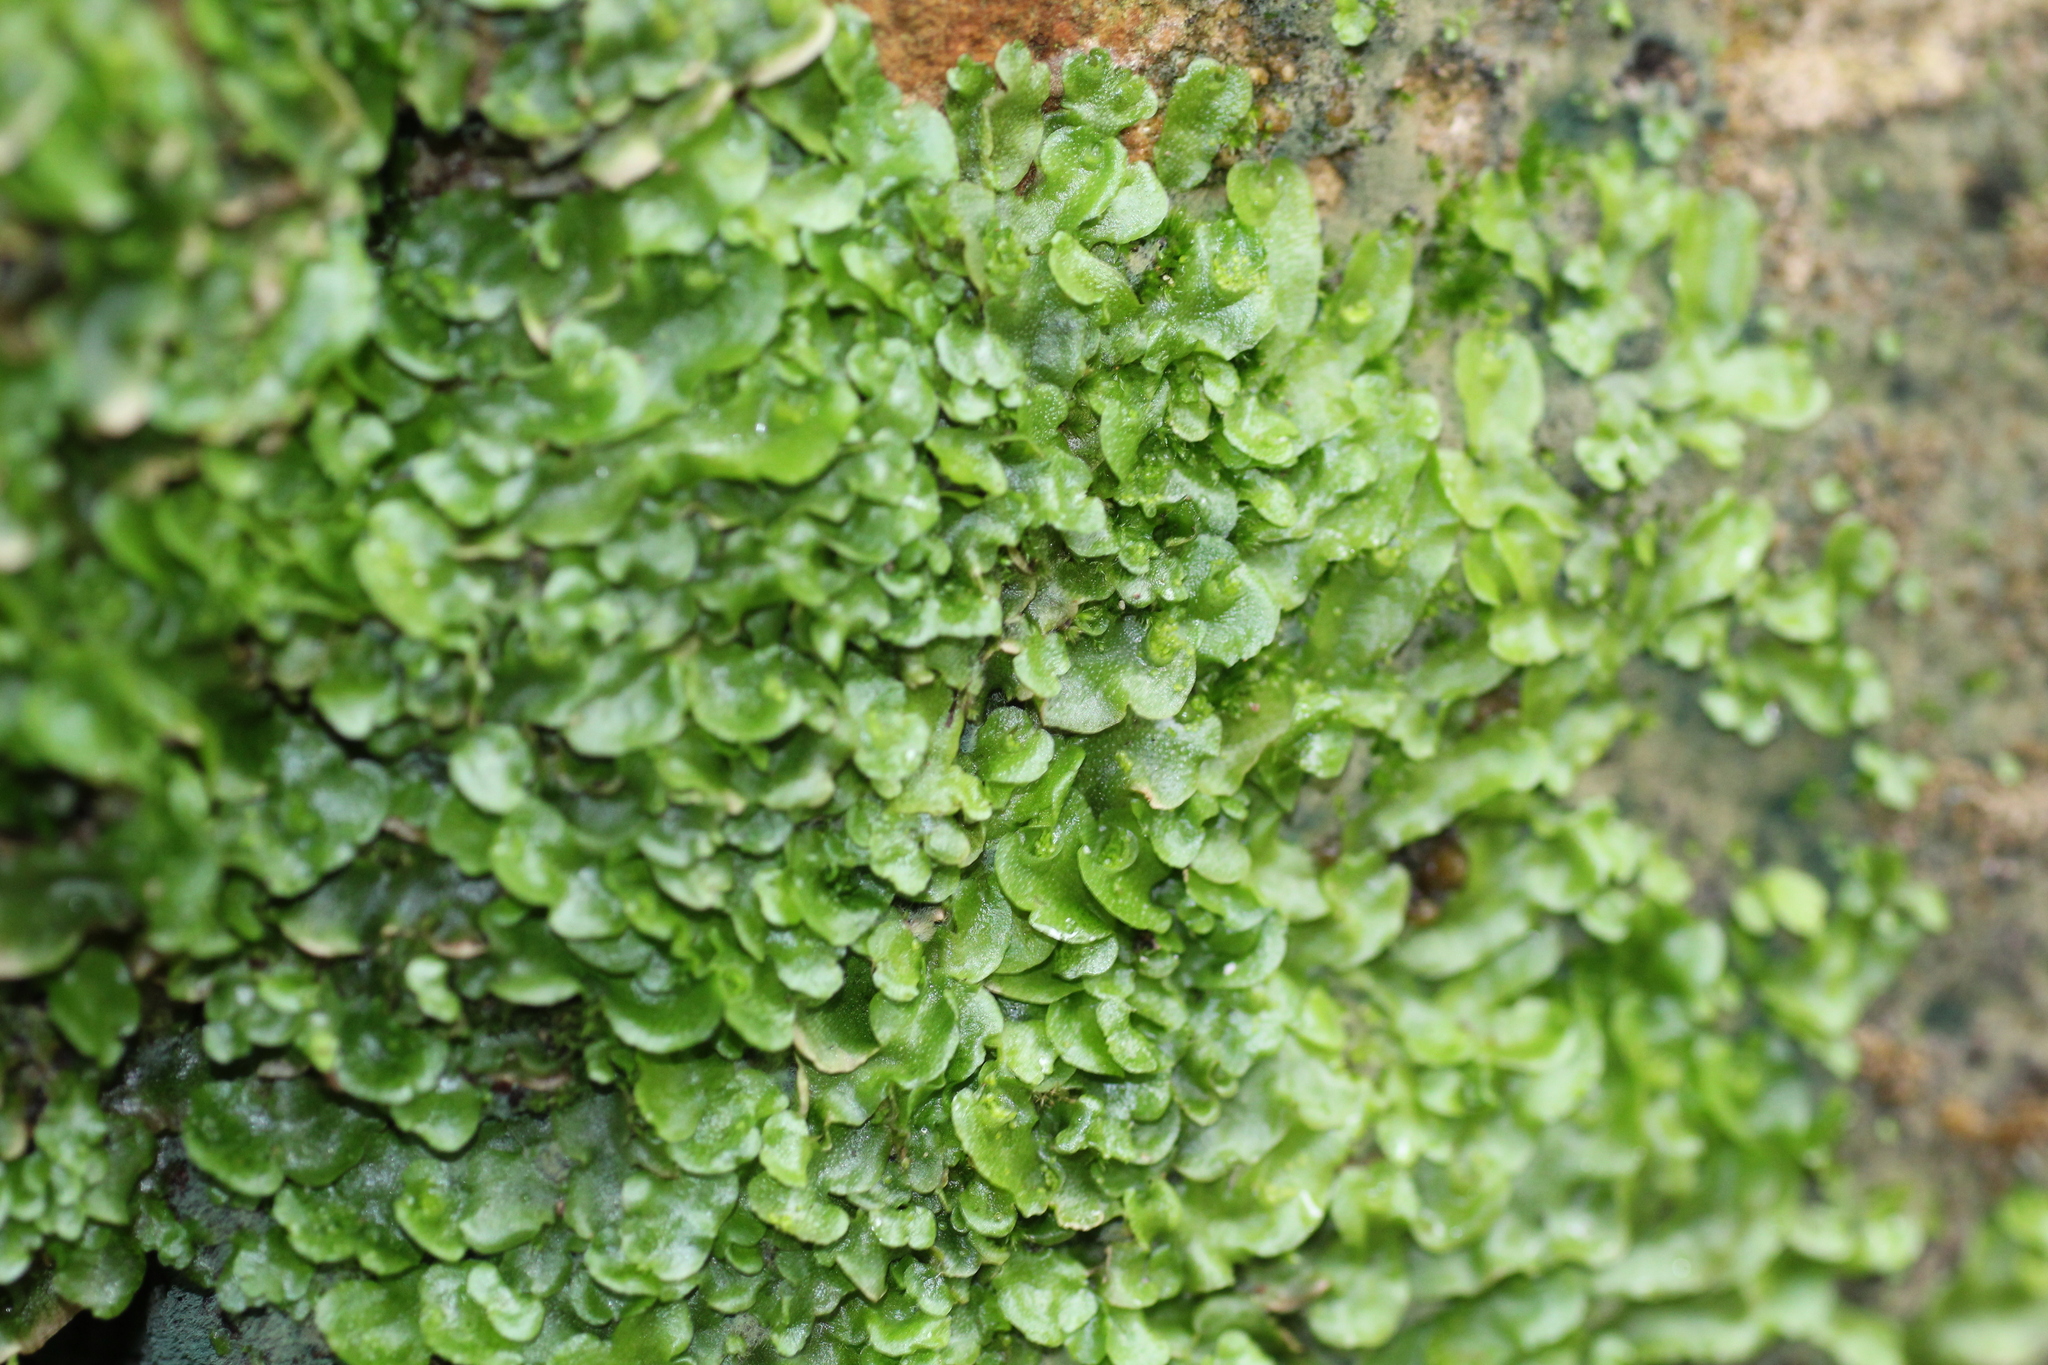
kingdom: Plantae
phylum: Marchantiophyta
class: Marchantiopsida
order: Lunulariales
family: Lunulariaceae
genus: Lunularia
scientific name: Lunularia cruciata
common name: Crescent-cup liverwort
